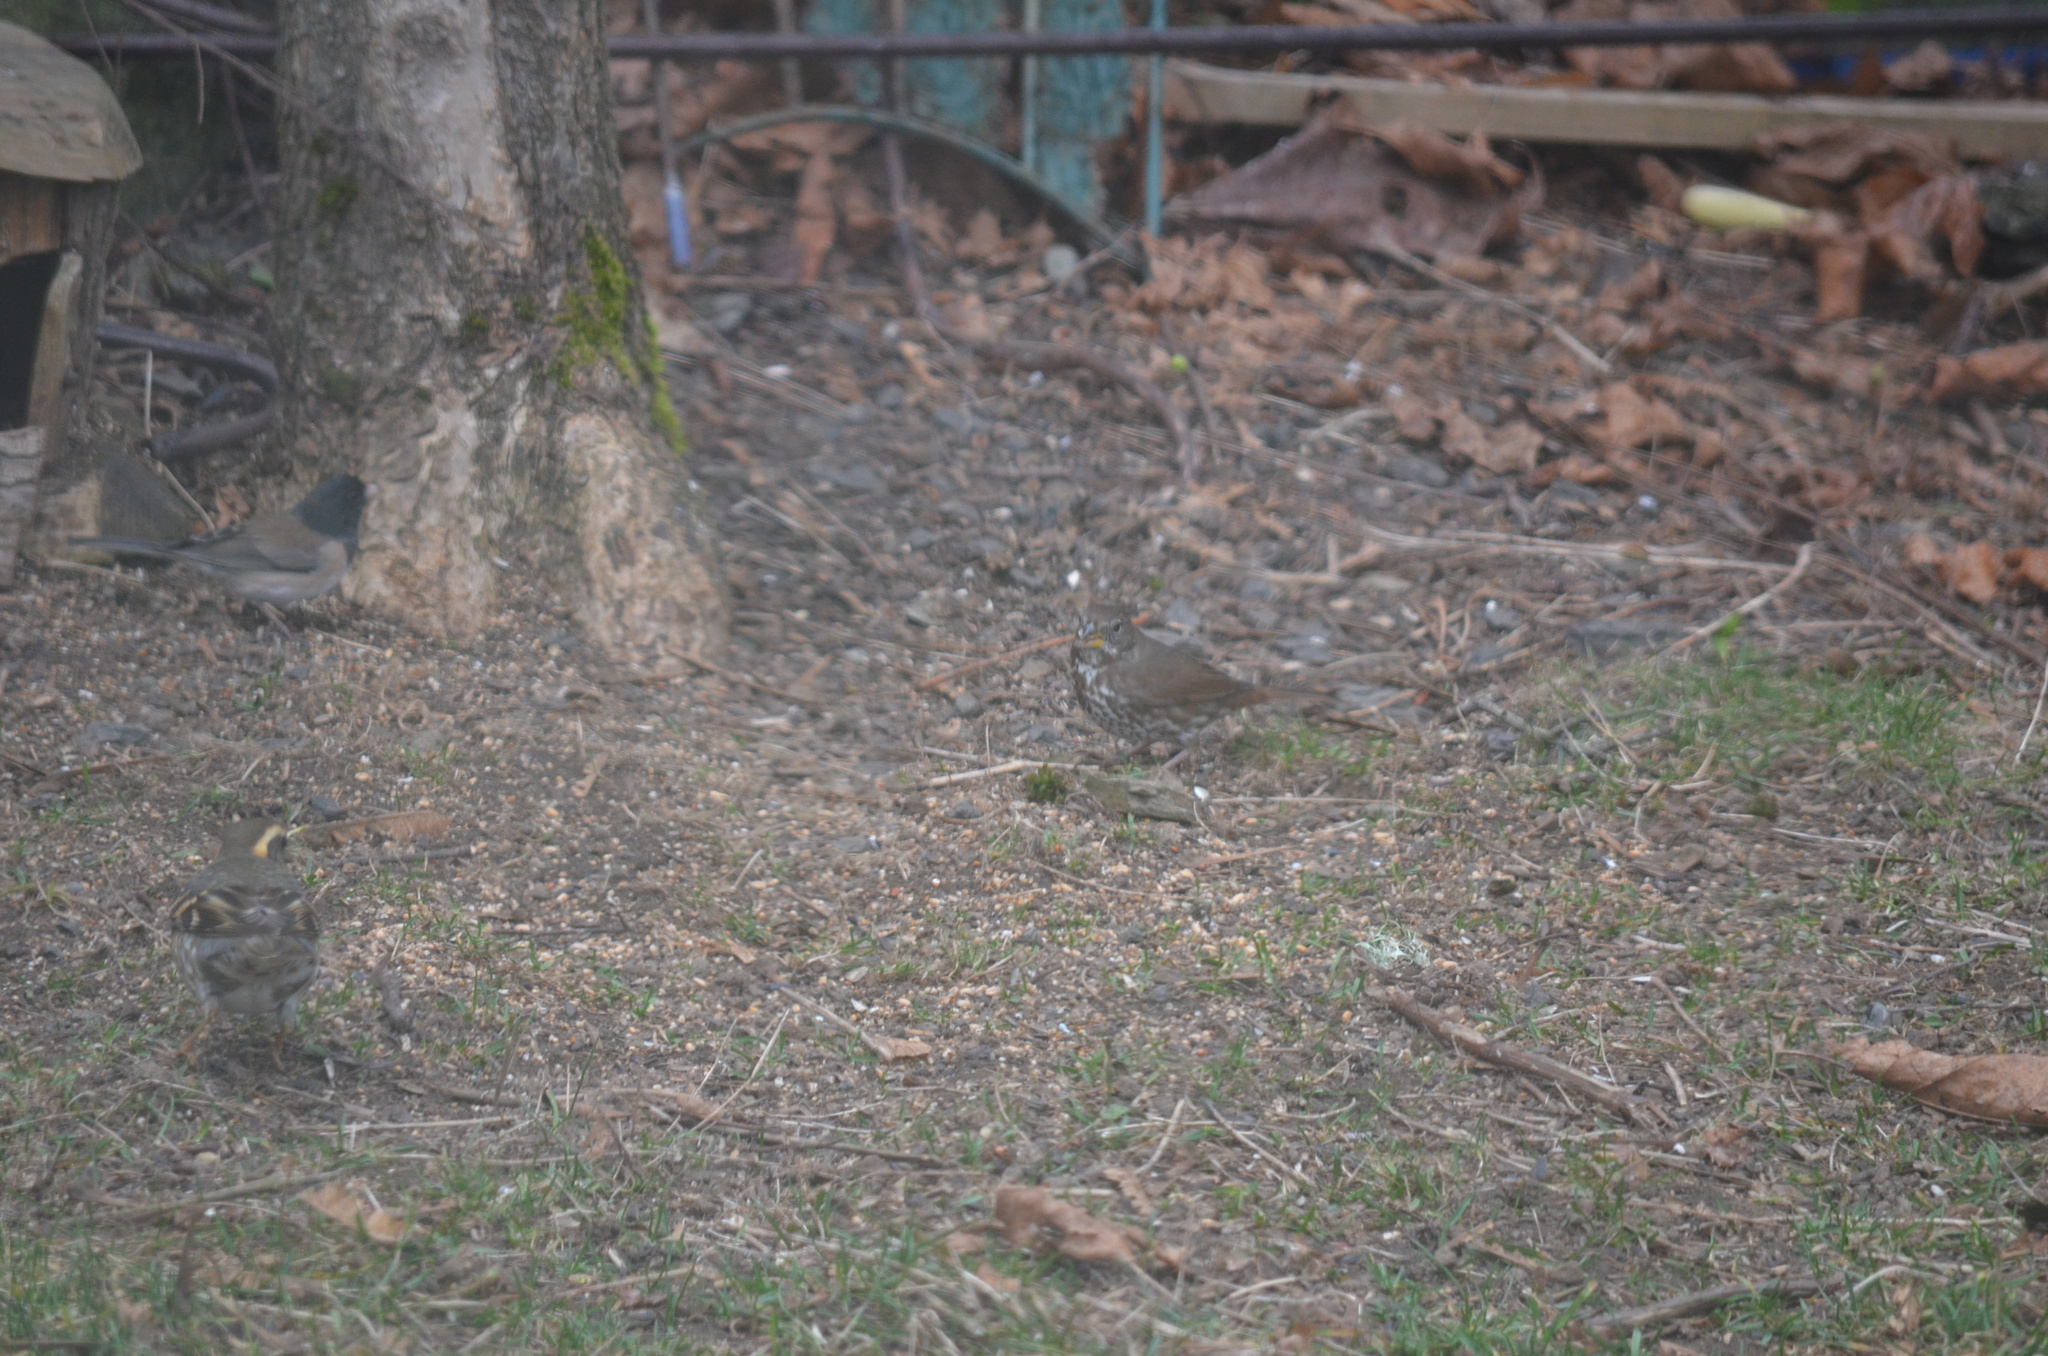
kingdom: Animalia
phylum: Chordata
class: Aves
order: Passeriformes
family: Passerellidae
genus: Passerella
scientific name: Passerella iliaca
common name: Fox sparrow
